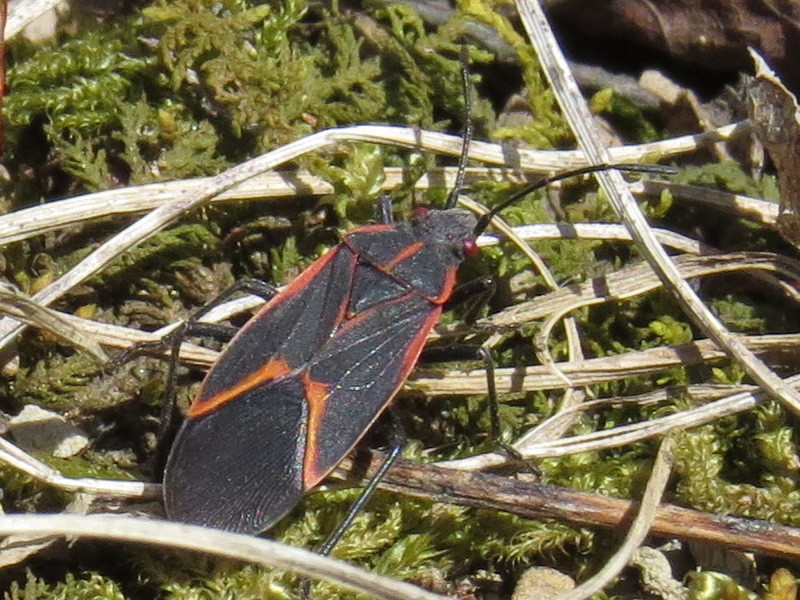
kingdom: Animalia
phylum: Arthropoda
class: Insecta
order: Hemiptera
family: Rhopalidae
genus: Boisea
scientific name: Boisea trivittata
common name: Boxelder bug
